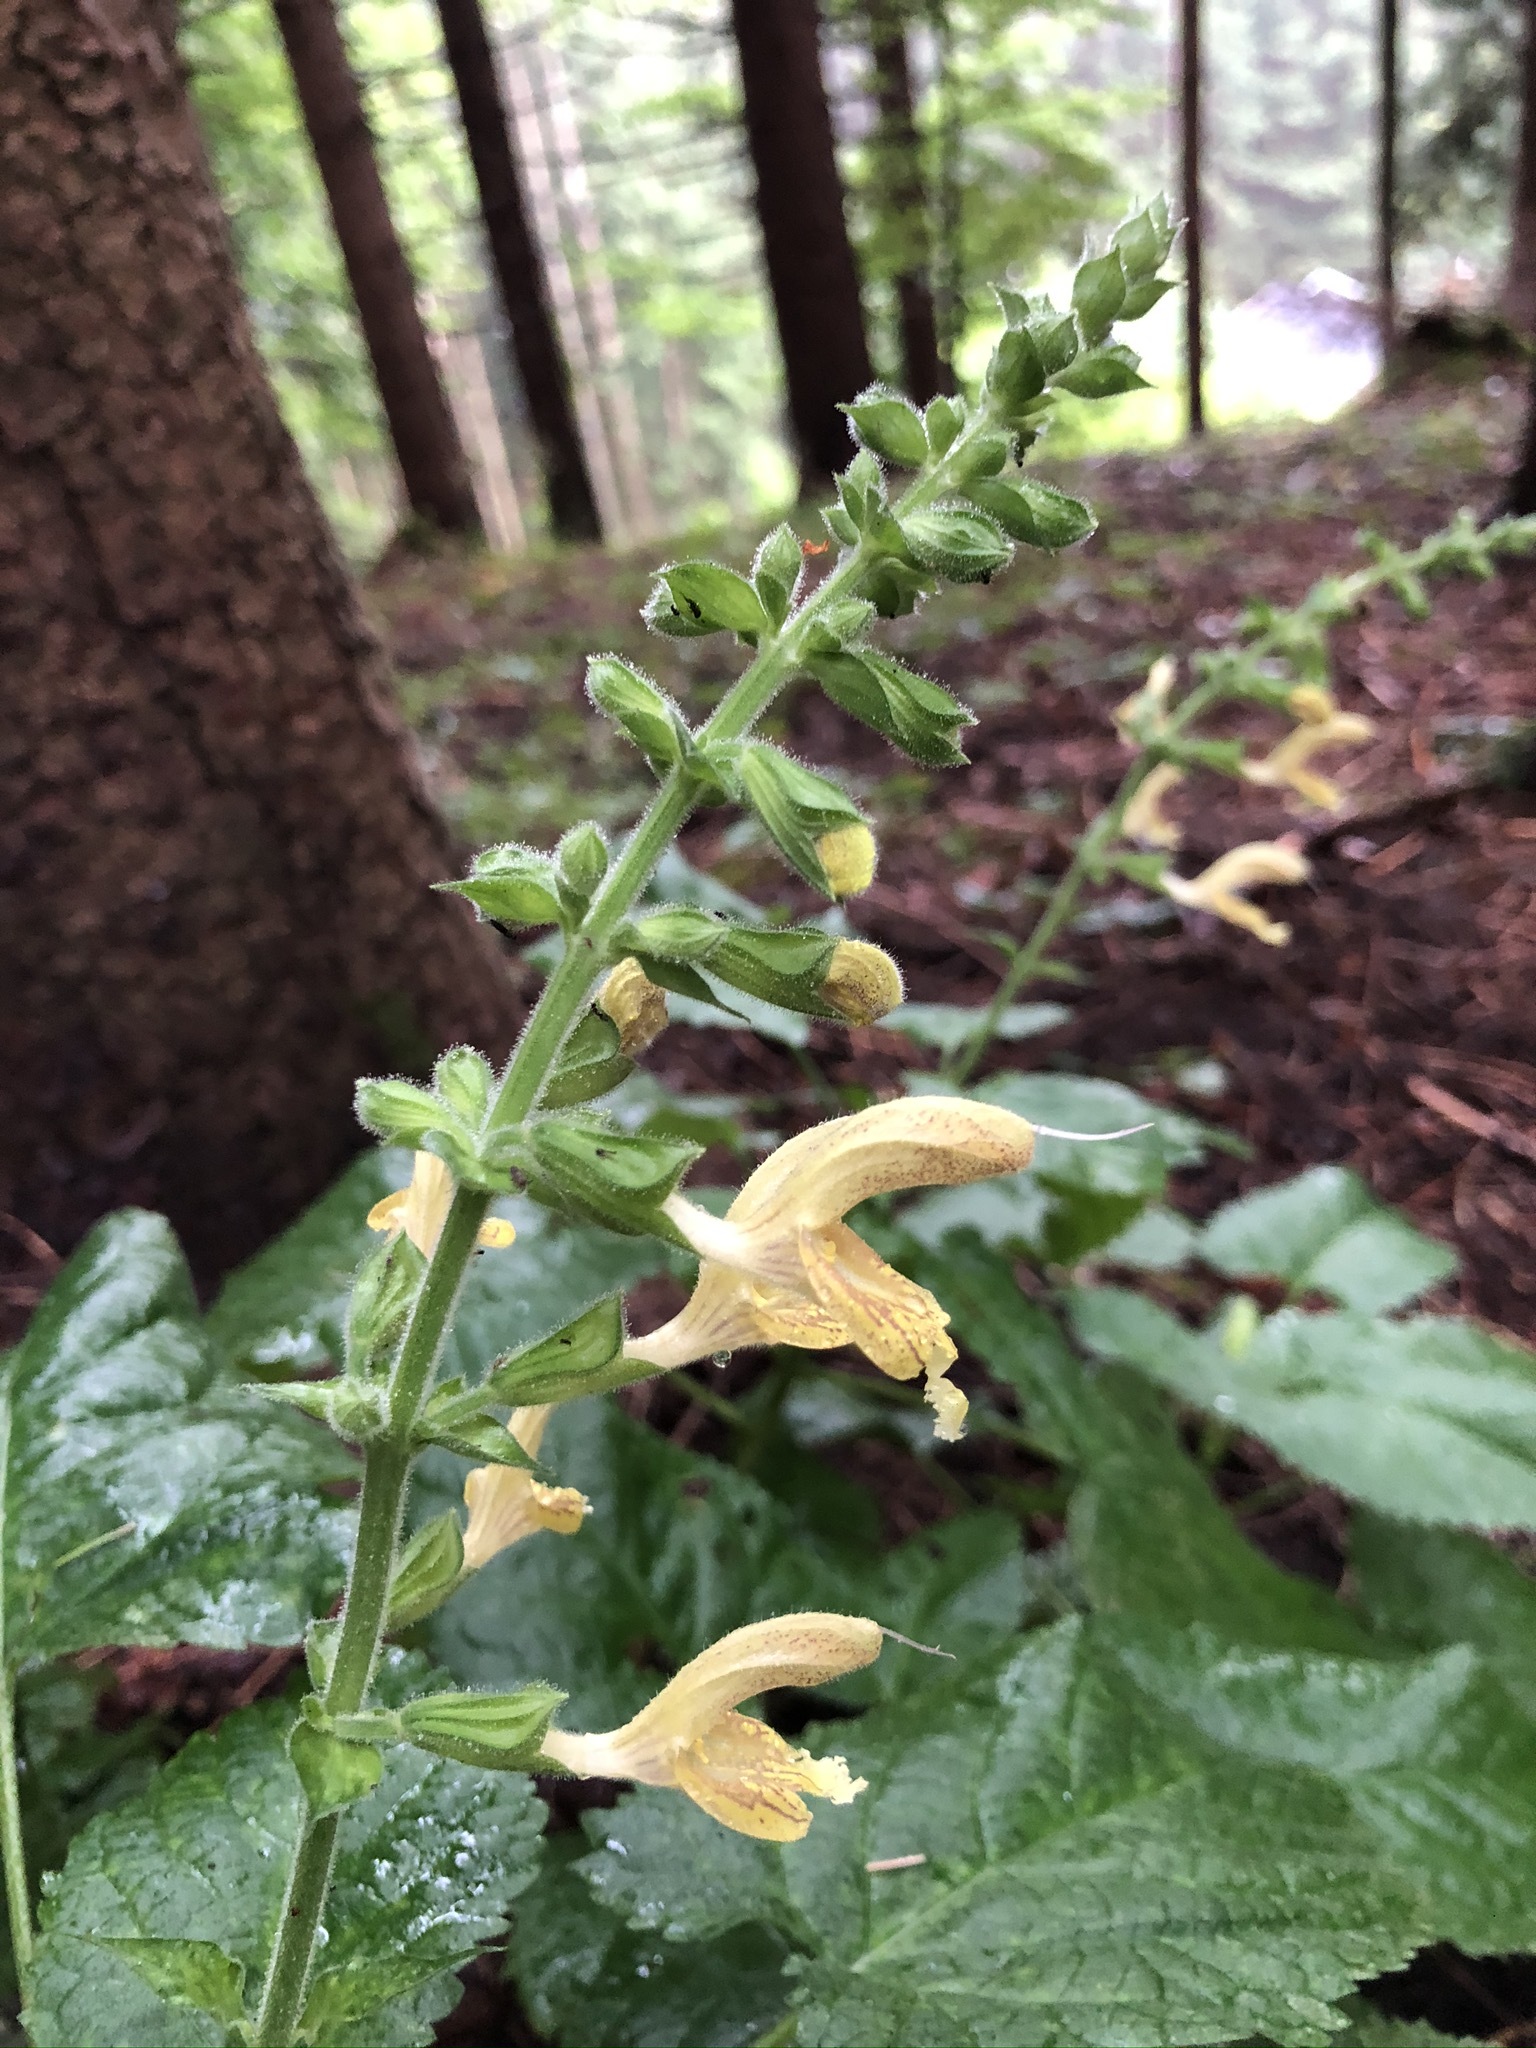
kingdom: Plantae
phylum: Tracheophyta
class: Magnoliopsida
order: Lamiales
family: Lamiaceae
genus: Salvia
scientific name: Salvia glutinosa
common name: Sticky clary
